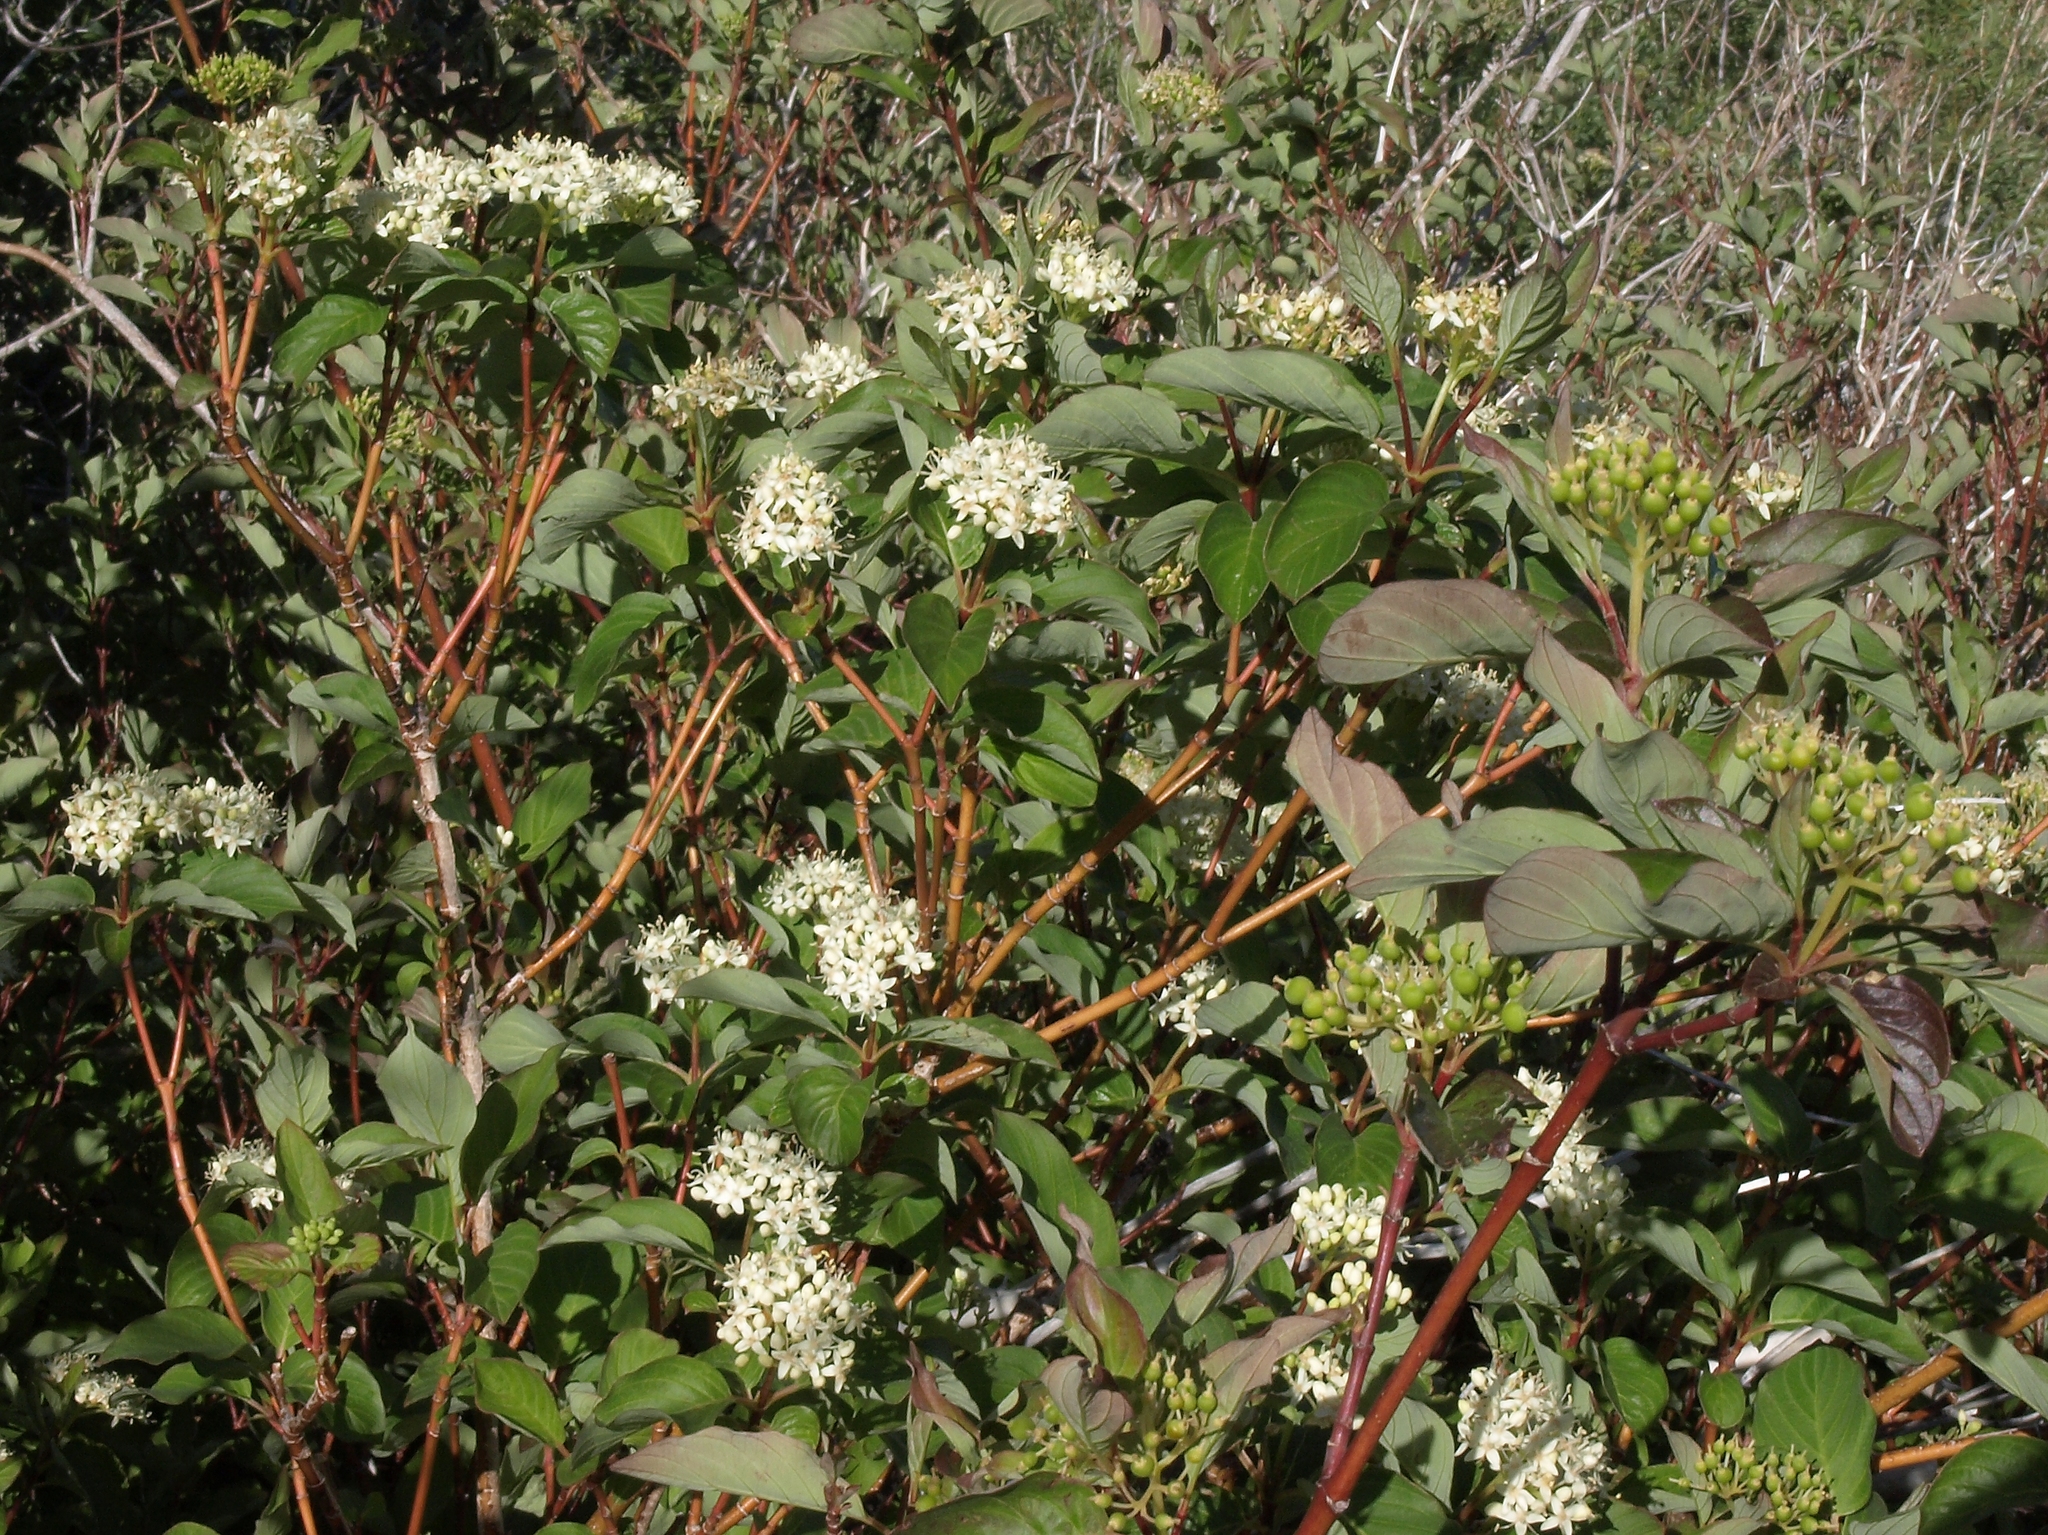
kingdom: Plantae
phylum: Tracheophyta
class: Magnoliopsida
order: Cornales
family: Cornaceae
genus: Cornus
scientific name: Cornus sericea
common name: Red-osier dogwood
